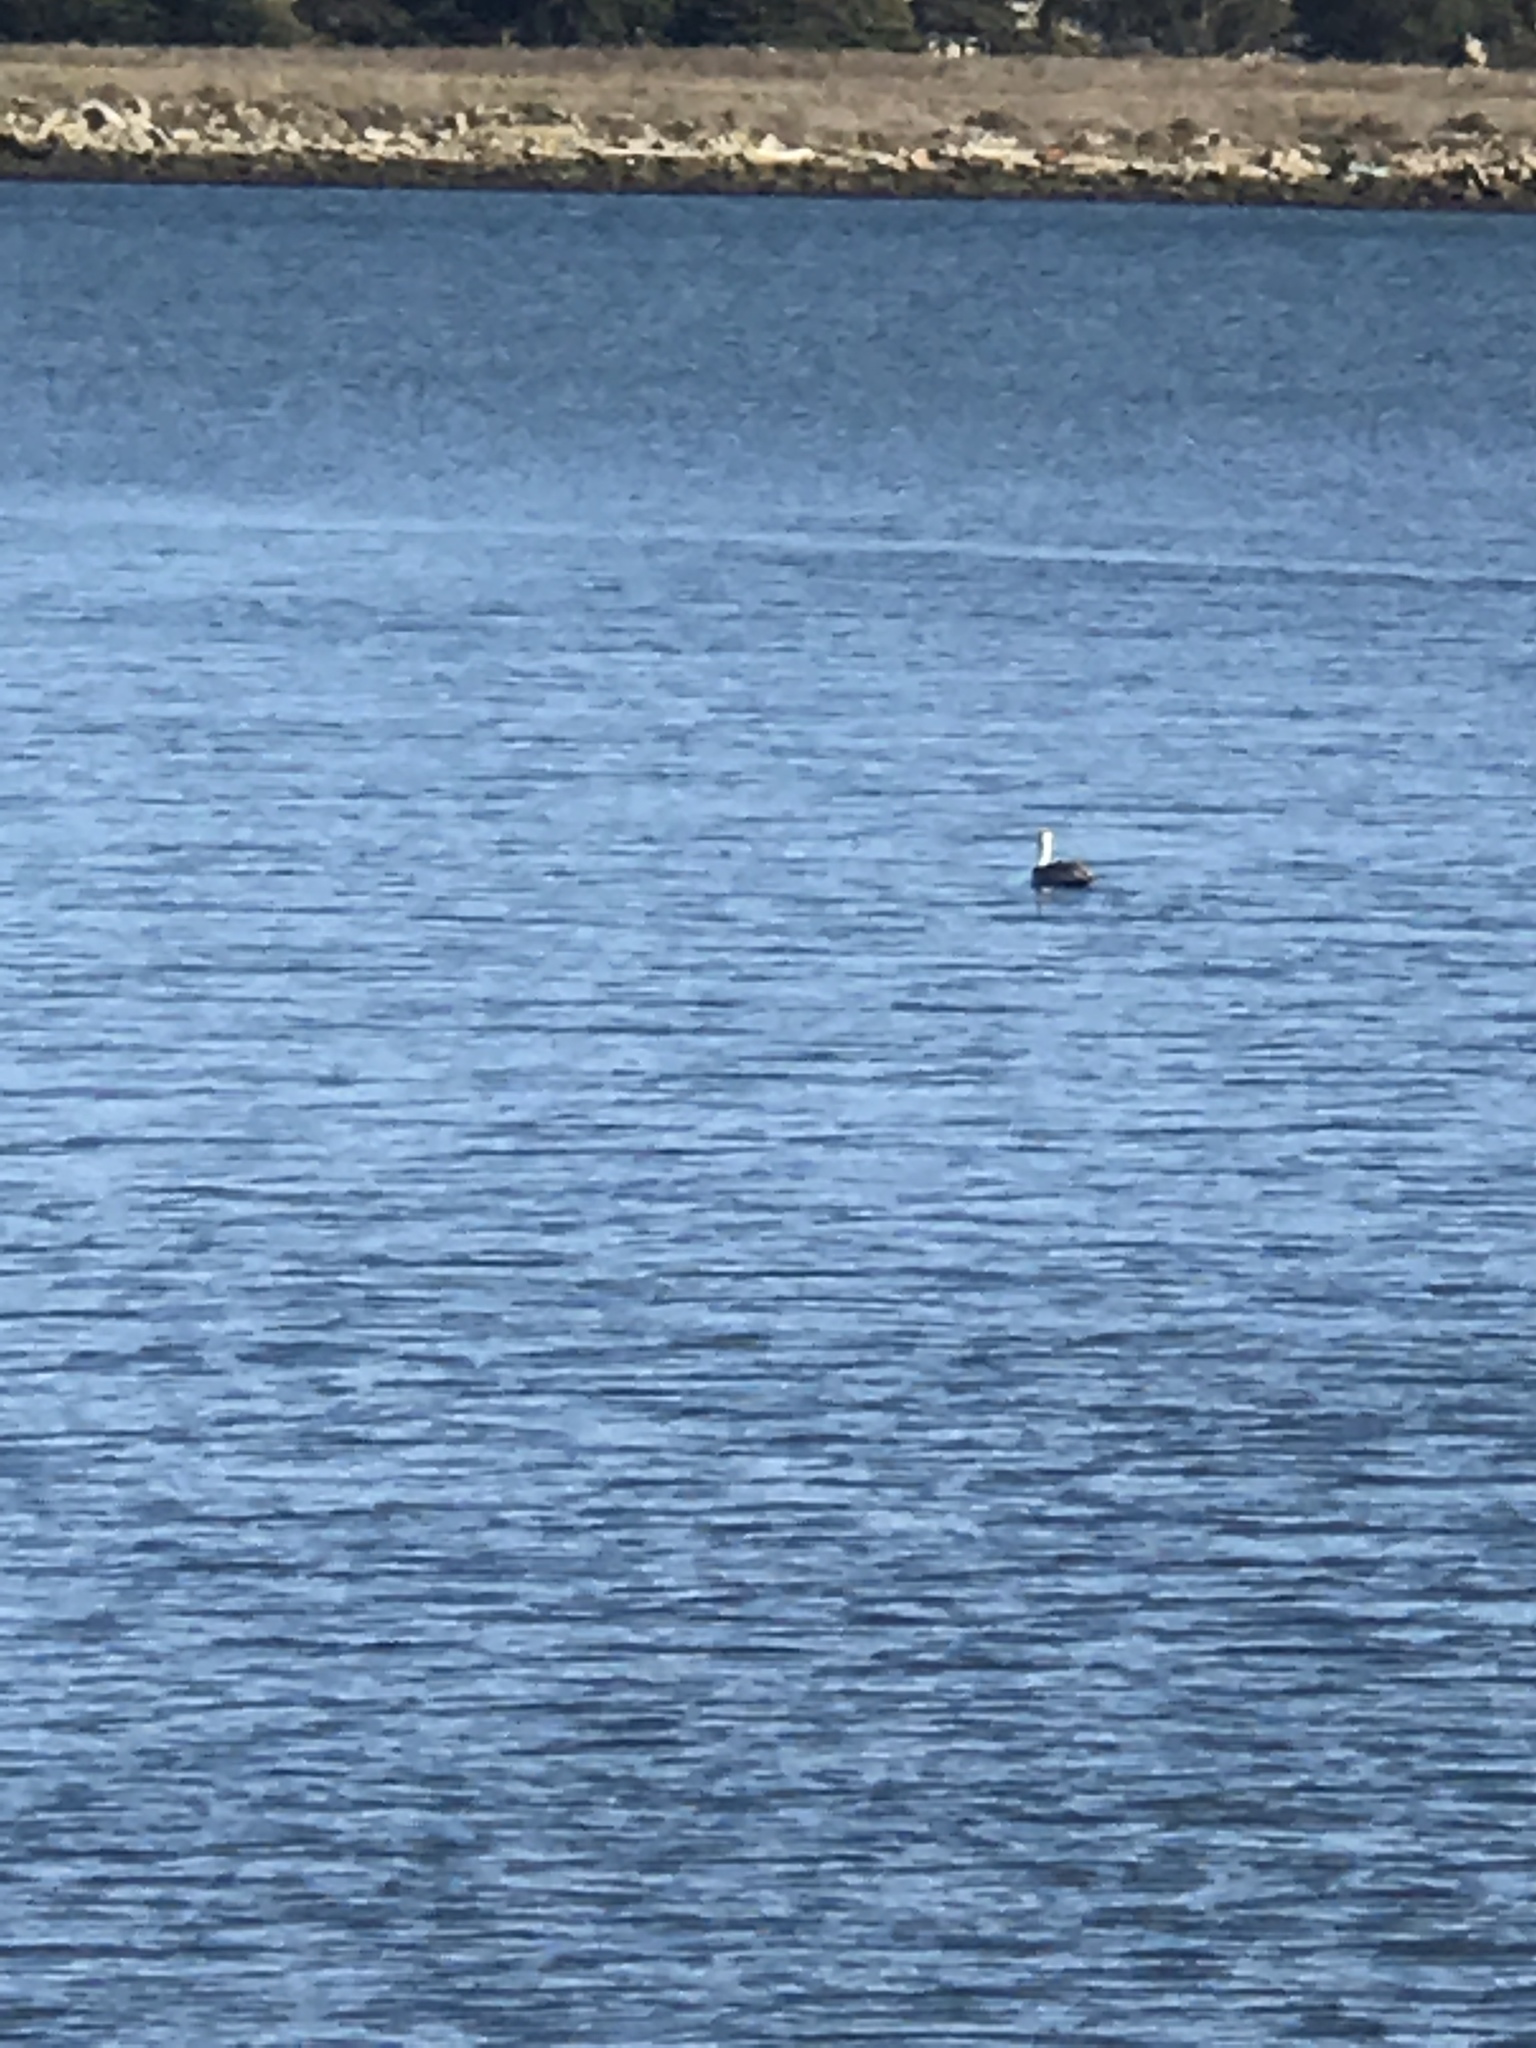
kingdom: Animalia
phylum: Chordata
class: Aves
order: Pelecaniformes
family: Pelecanidae
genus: Pelecanus
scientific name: Pelecanus occidentalis
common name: Brown pelican
